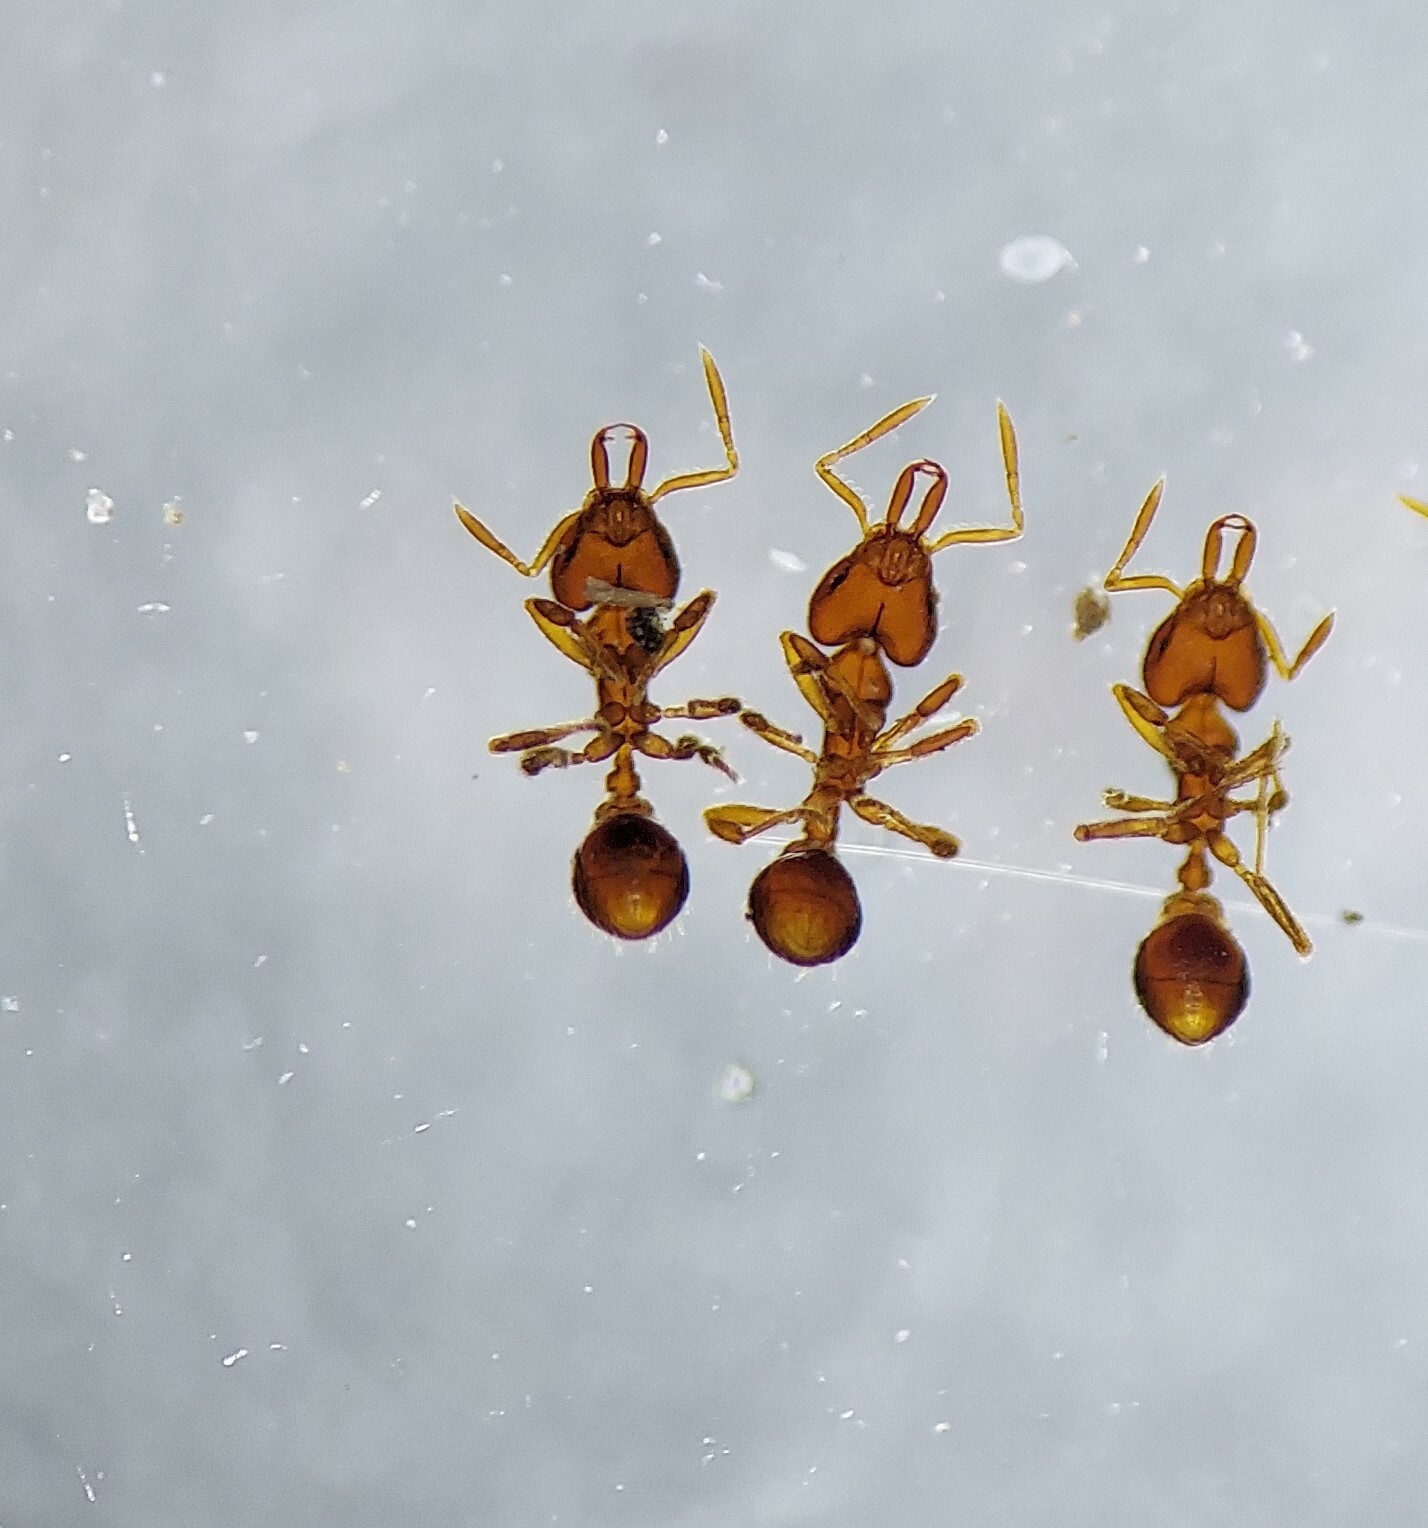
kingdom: Animalia
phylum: Arthropoda
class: Insecta
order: Hymenoptera
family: Formicidae
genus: Strumigenys
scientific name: Strumigenys louisianae
